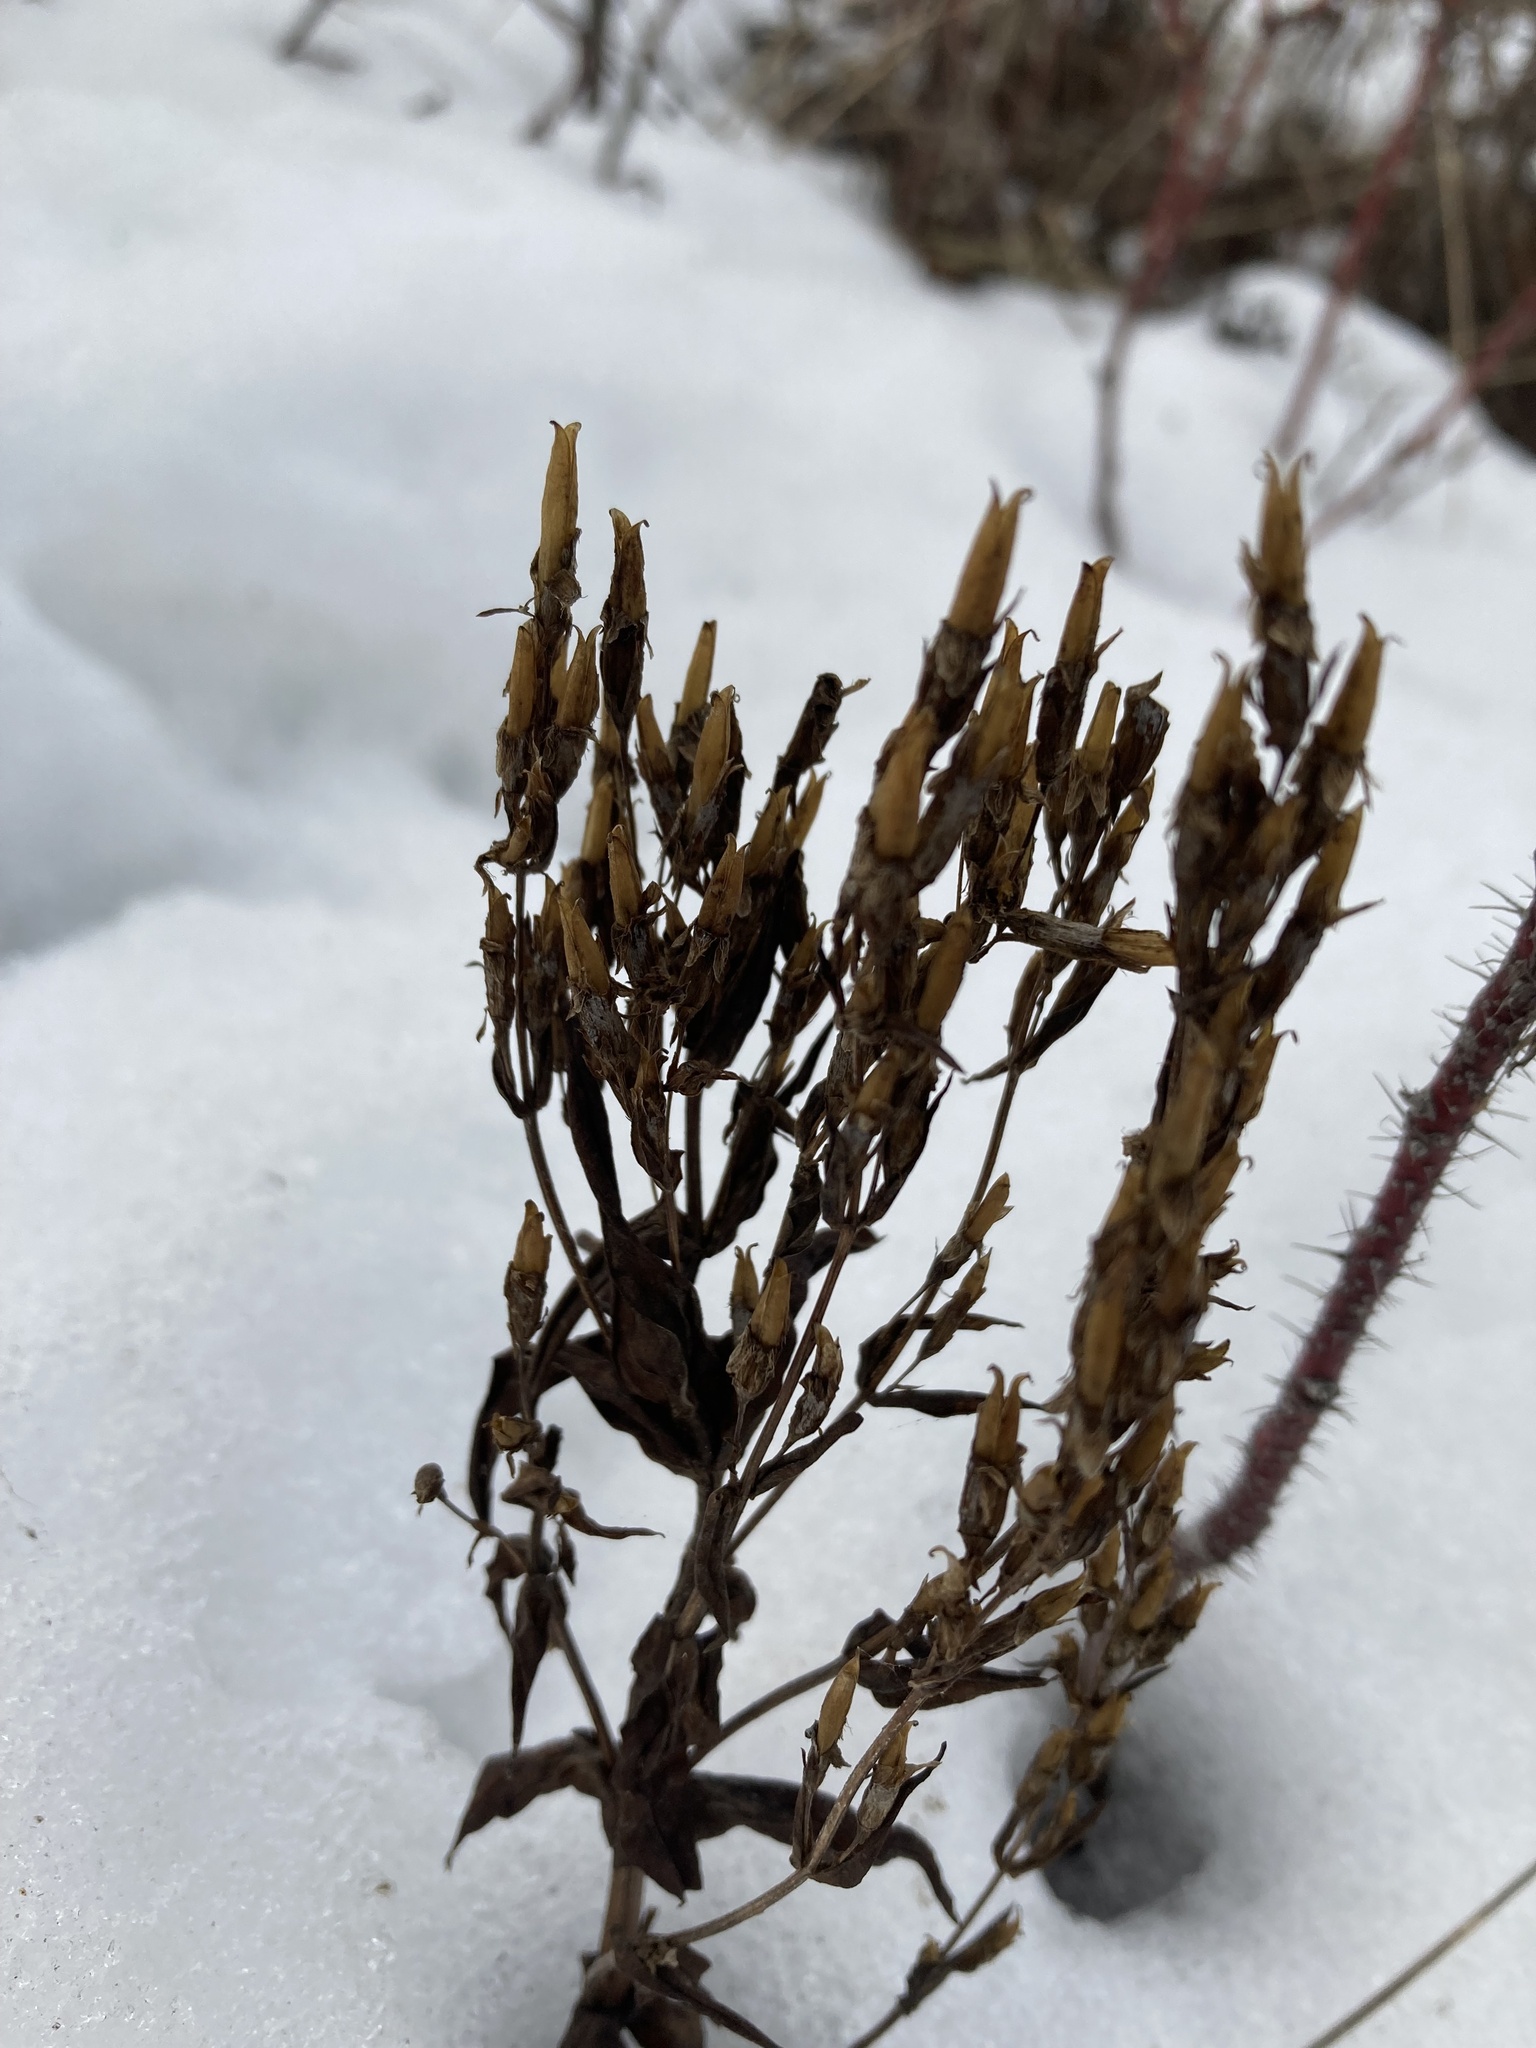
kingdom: Plantae
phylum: Tracheophyta
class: Magnoliopsida
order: Gentianales
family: Gentianaceae
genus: Gentianella
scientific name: Gentianella amarella
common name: Autumn gentian
